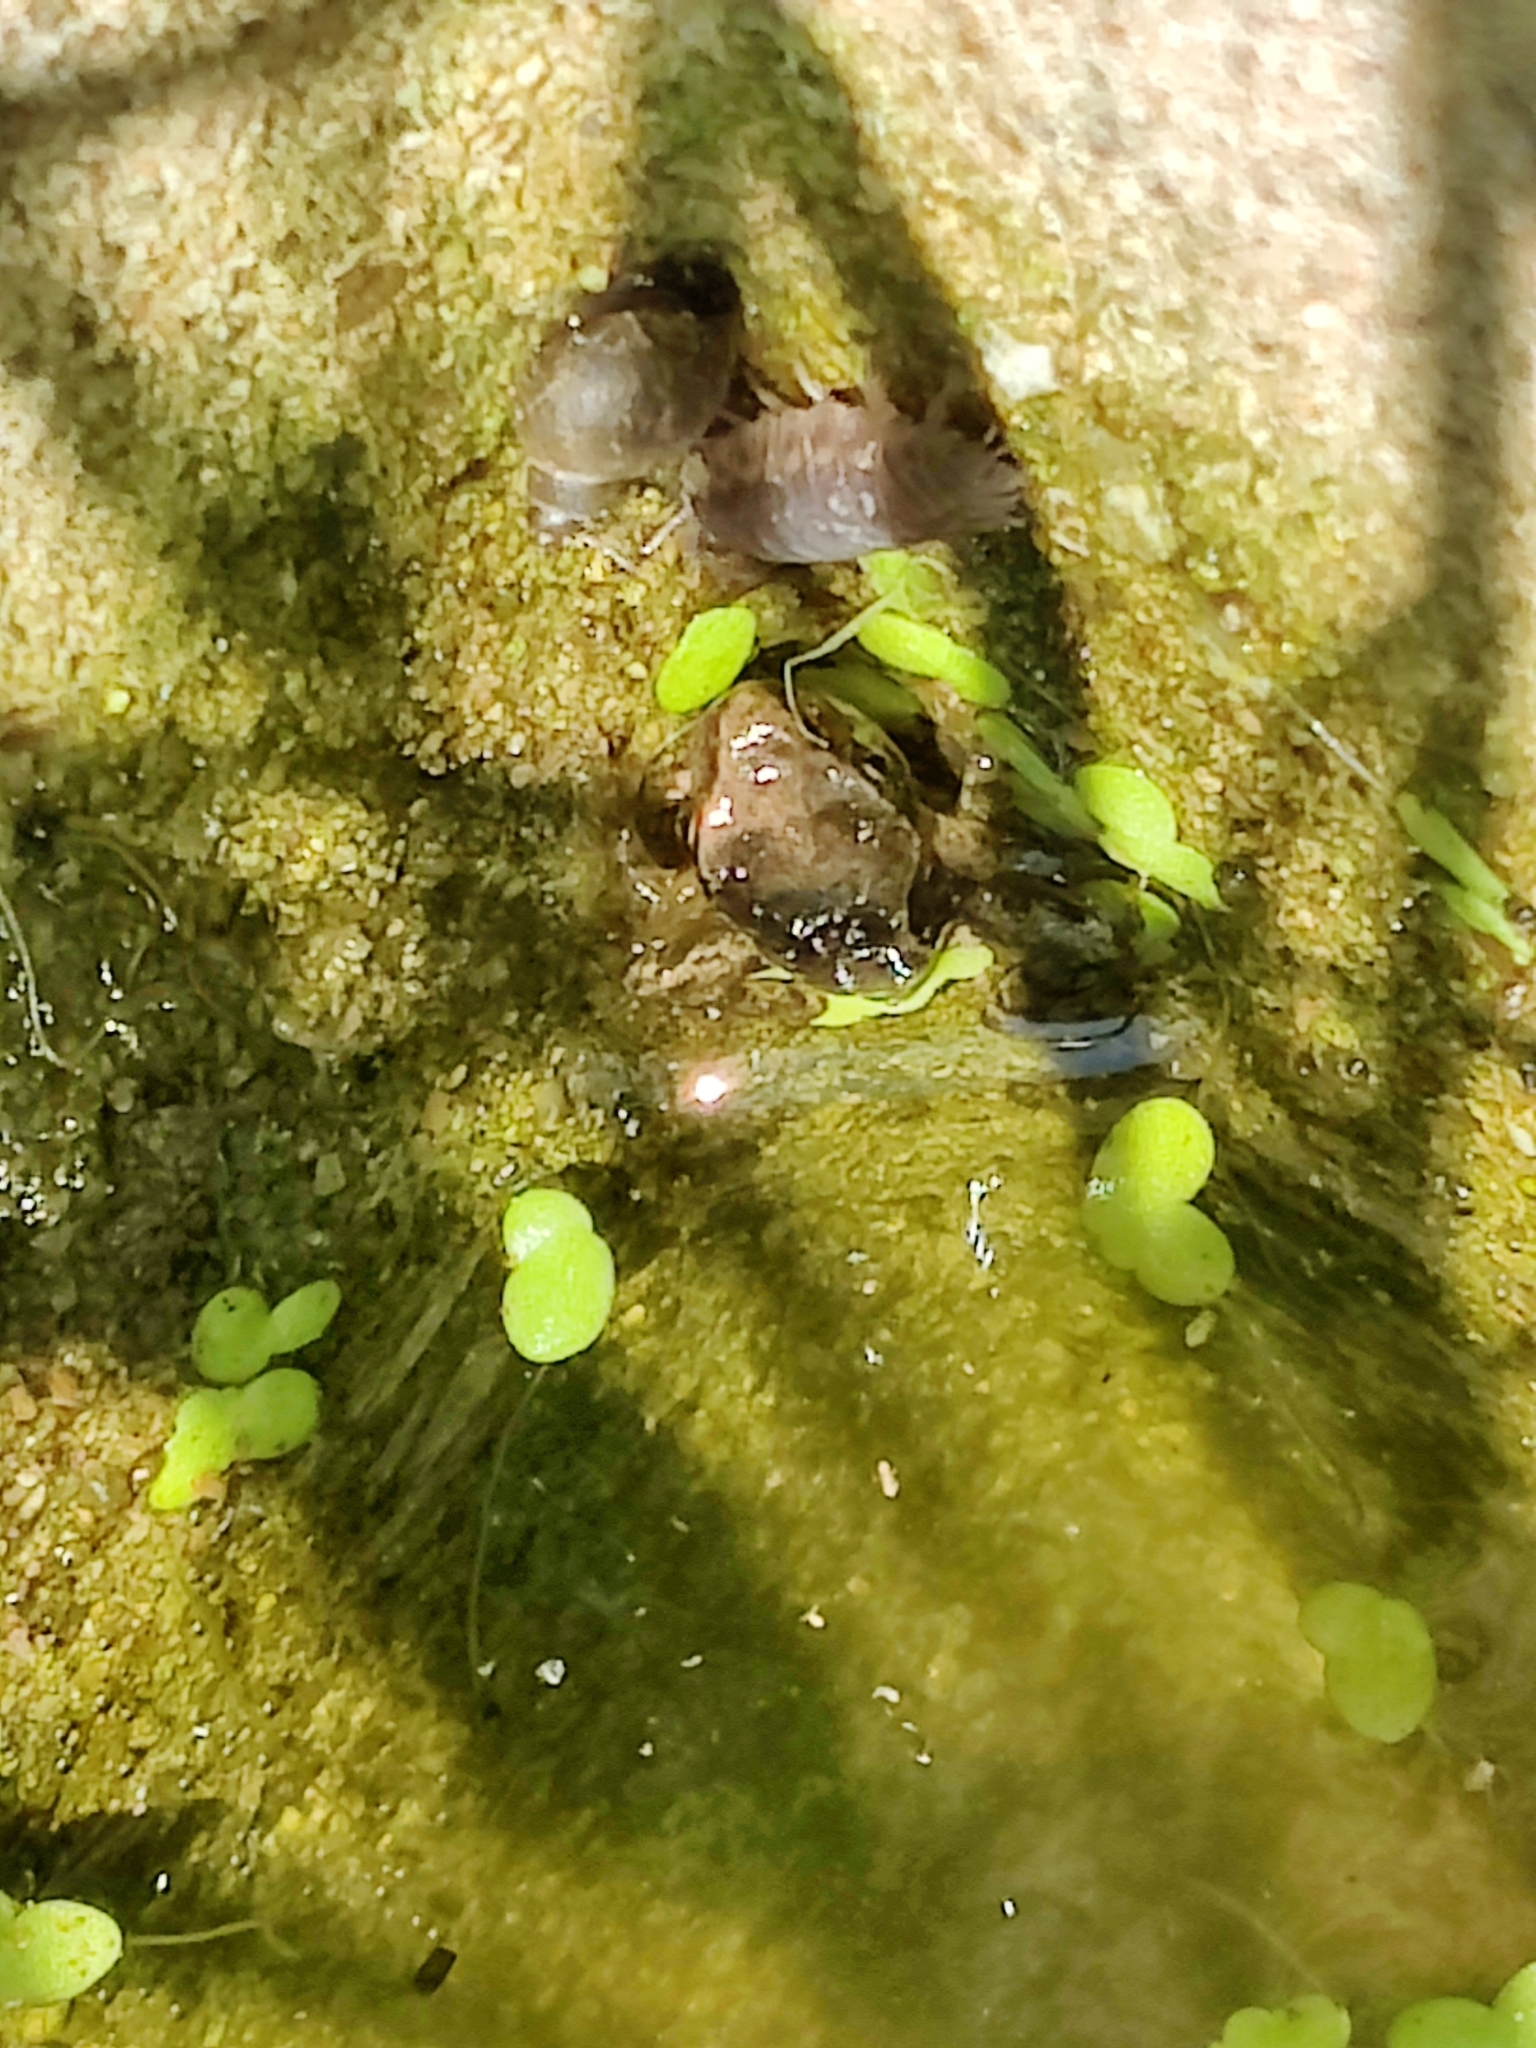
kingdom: Animalia
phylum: Chordata
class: Amphibia
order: Anura
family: Ranidae
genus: Rana
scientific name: Rana temporaria
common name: Common frog
